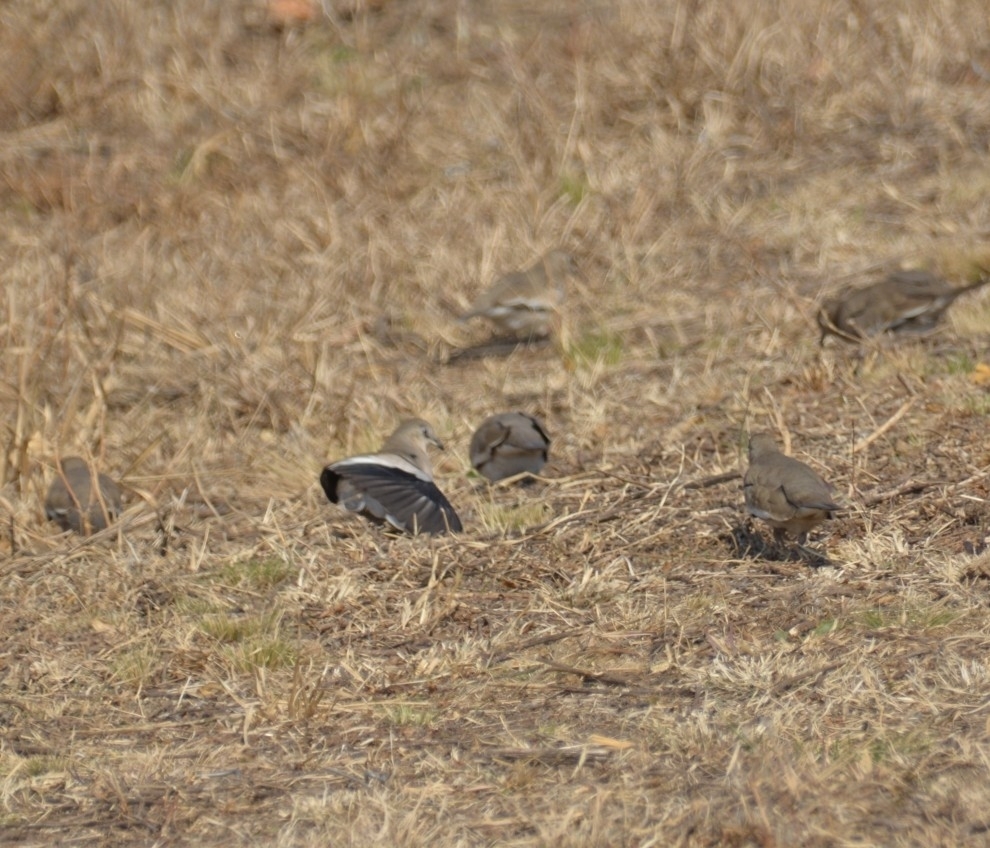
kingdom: Animalia
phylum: Chordata
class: Aves
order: Columbiformes
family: Columbidae
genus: Columbina
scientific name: Columbina picui
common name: Picui ground dove
